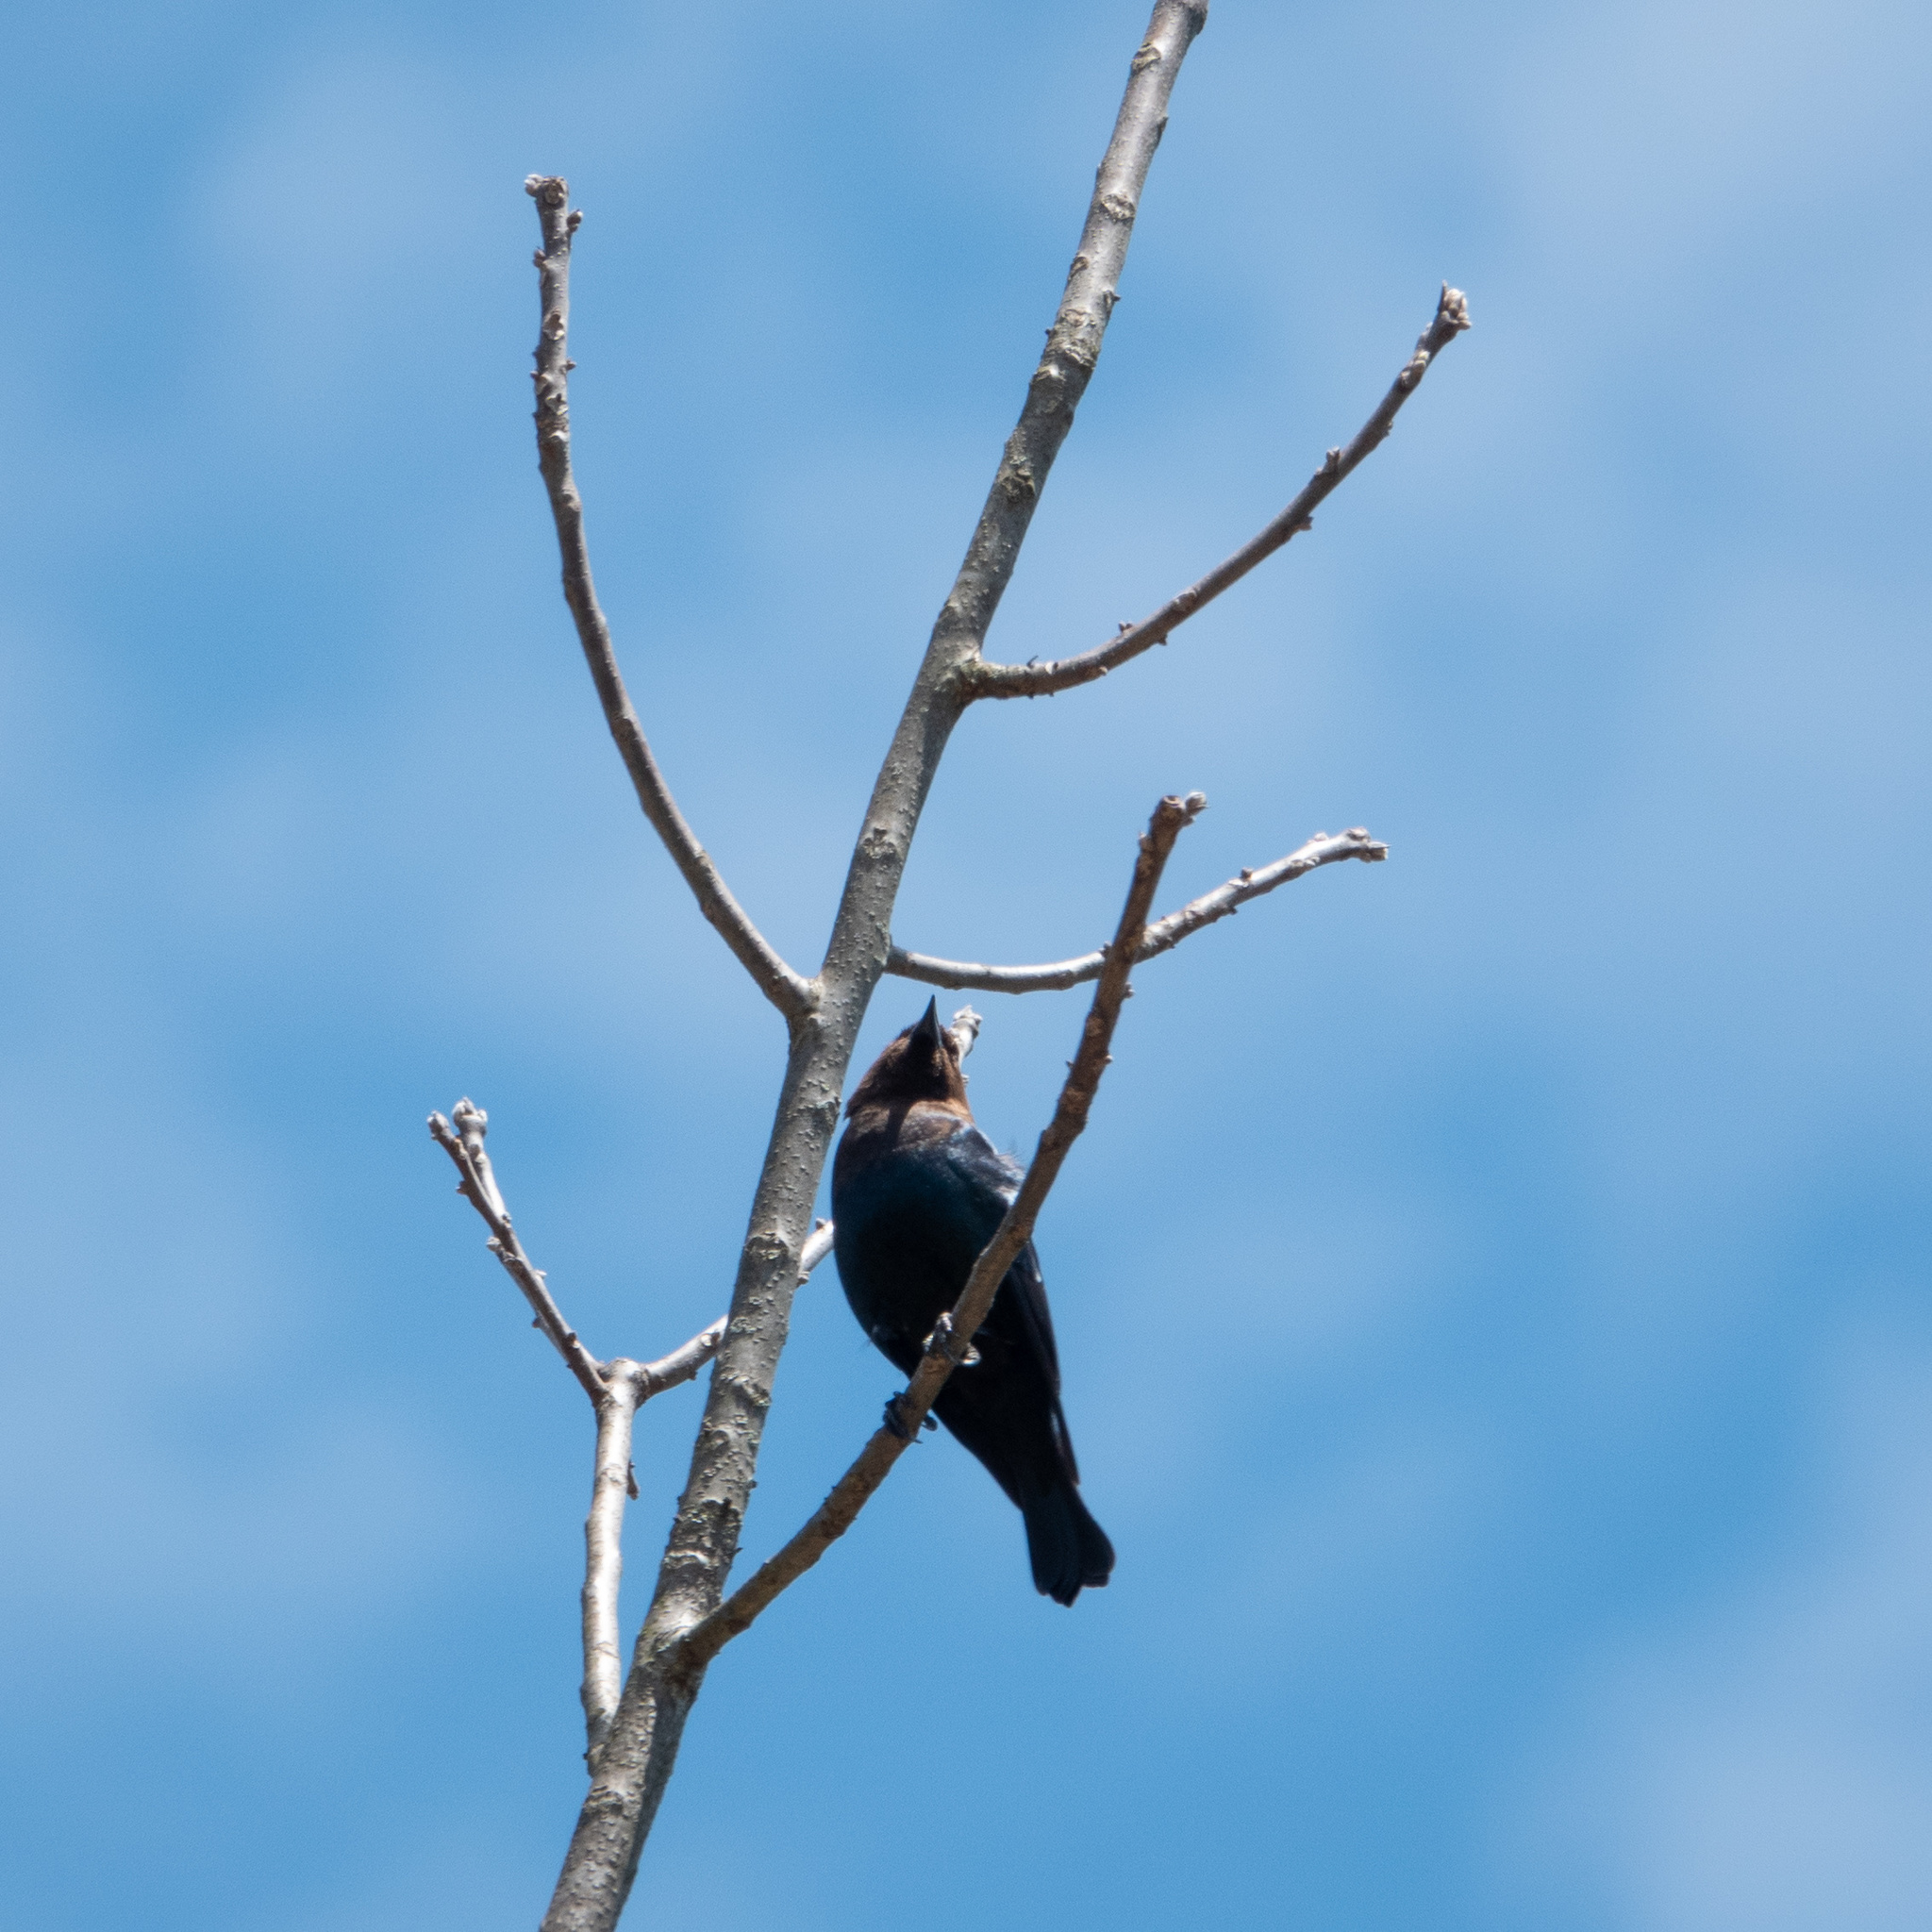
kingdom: Animalia
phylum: Chordata
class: Aves
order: Passeriformes
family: Icteridae
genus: Molothrus
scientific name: Molothrus ater
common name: Brown-headed cowbird
